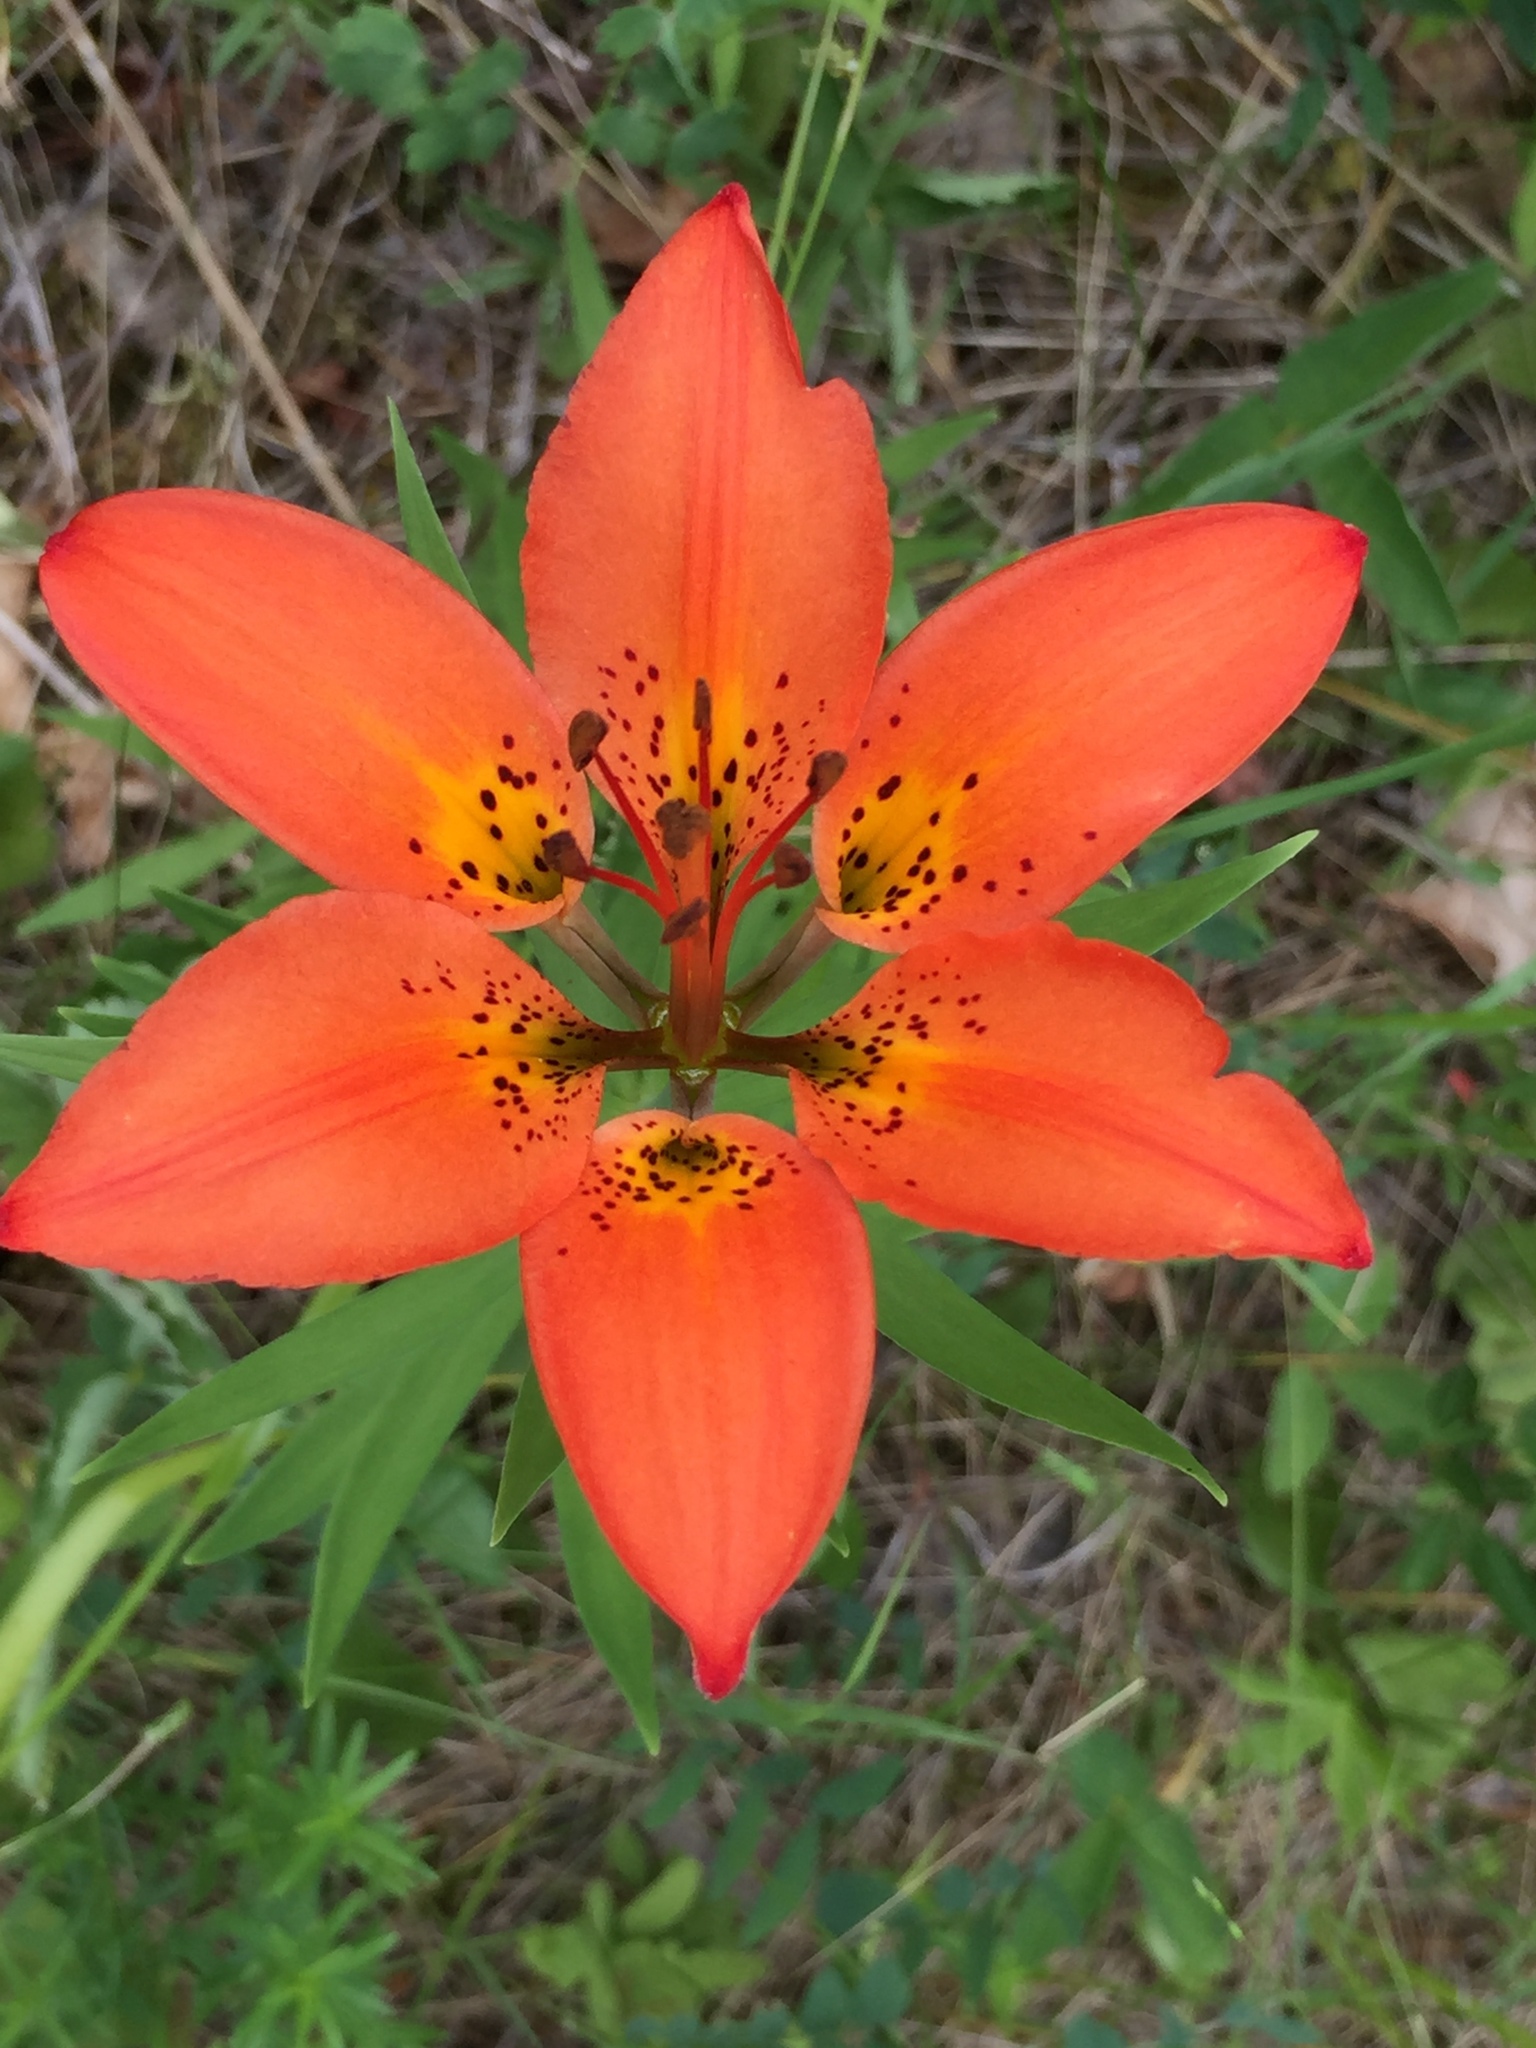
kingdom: Plantae
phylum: Tracheophyta
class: Liliopsida
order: Liliales
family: Liliaceae
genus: Lilium
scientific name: Lilium philadelphicum
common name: Red lily
